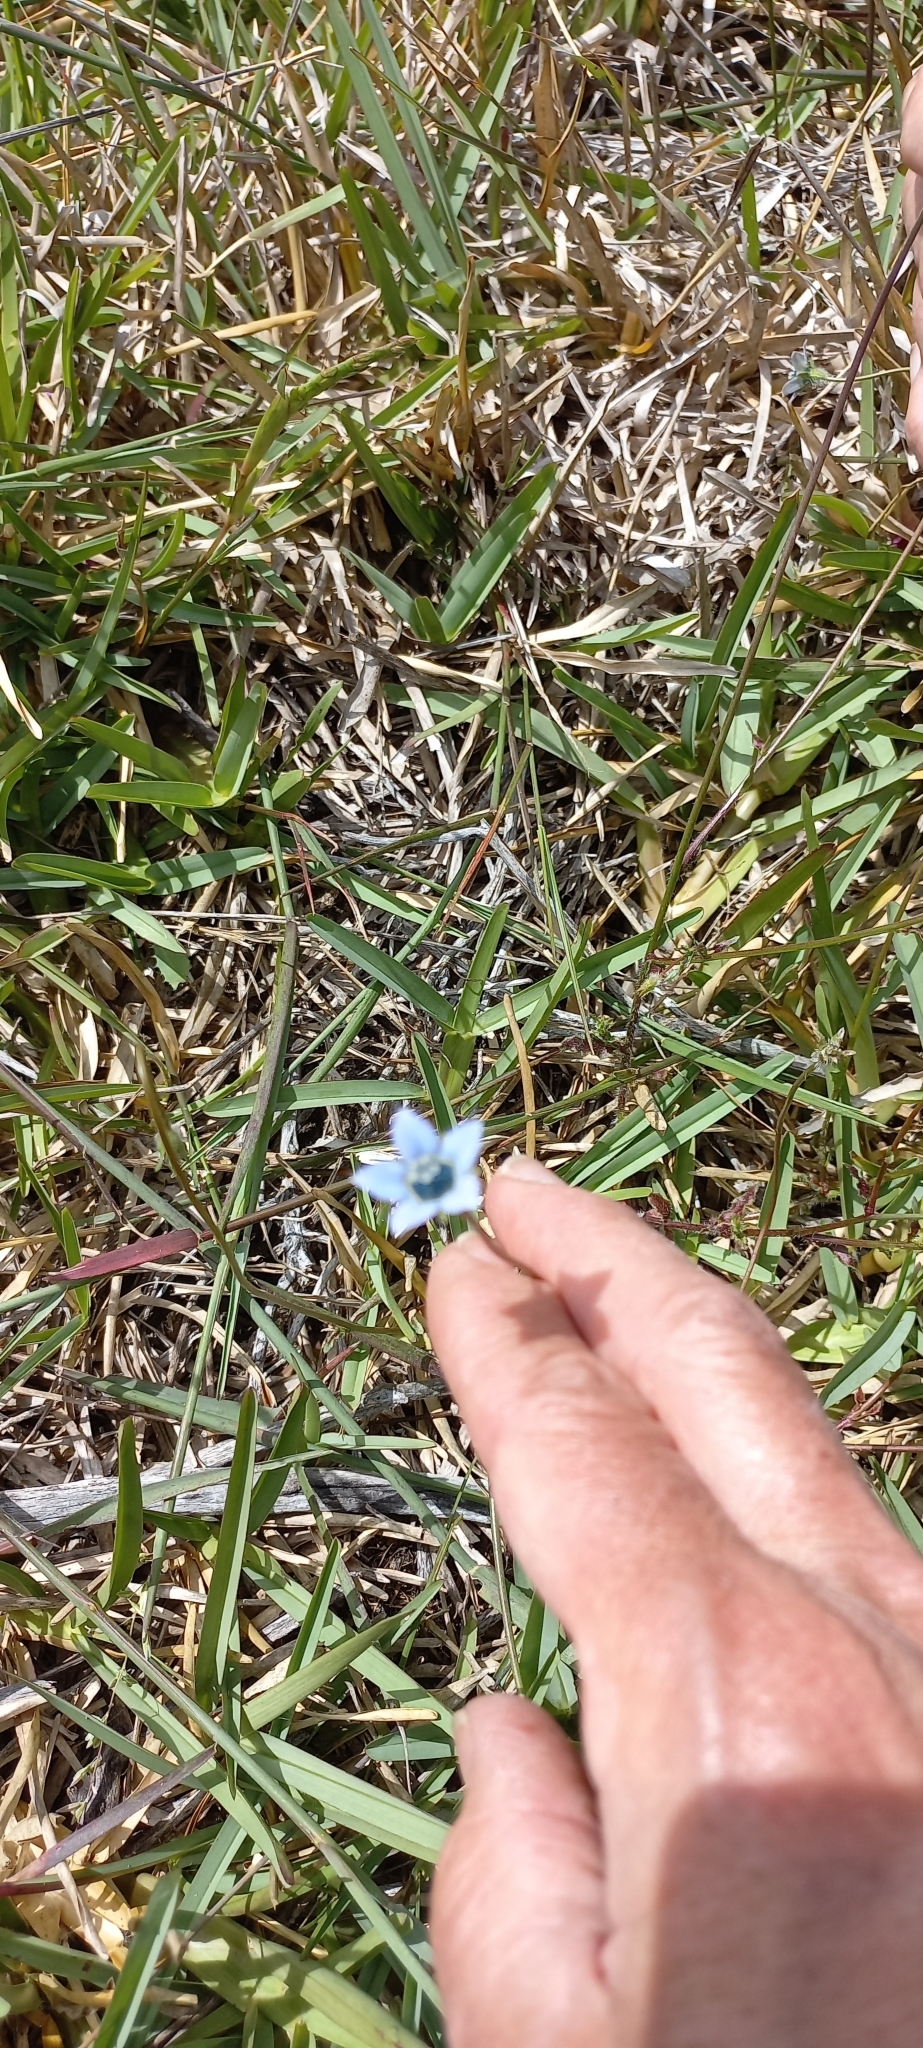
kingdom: Plantae
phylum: Tracheophyta
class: Magnoliopsida
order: Asterales
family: Campanulaceae
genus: Wahlenbergia
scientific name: Wahlenbergia capensis
